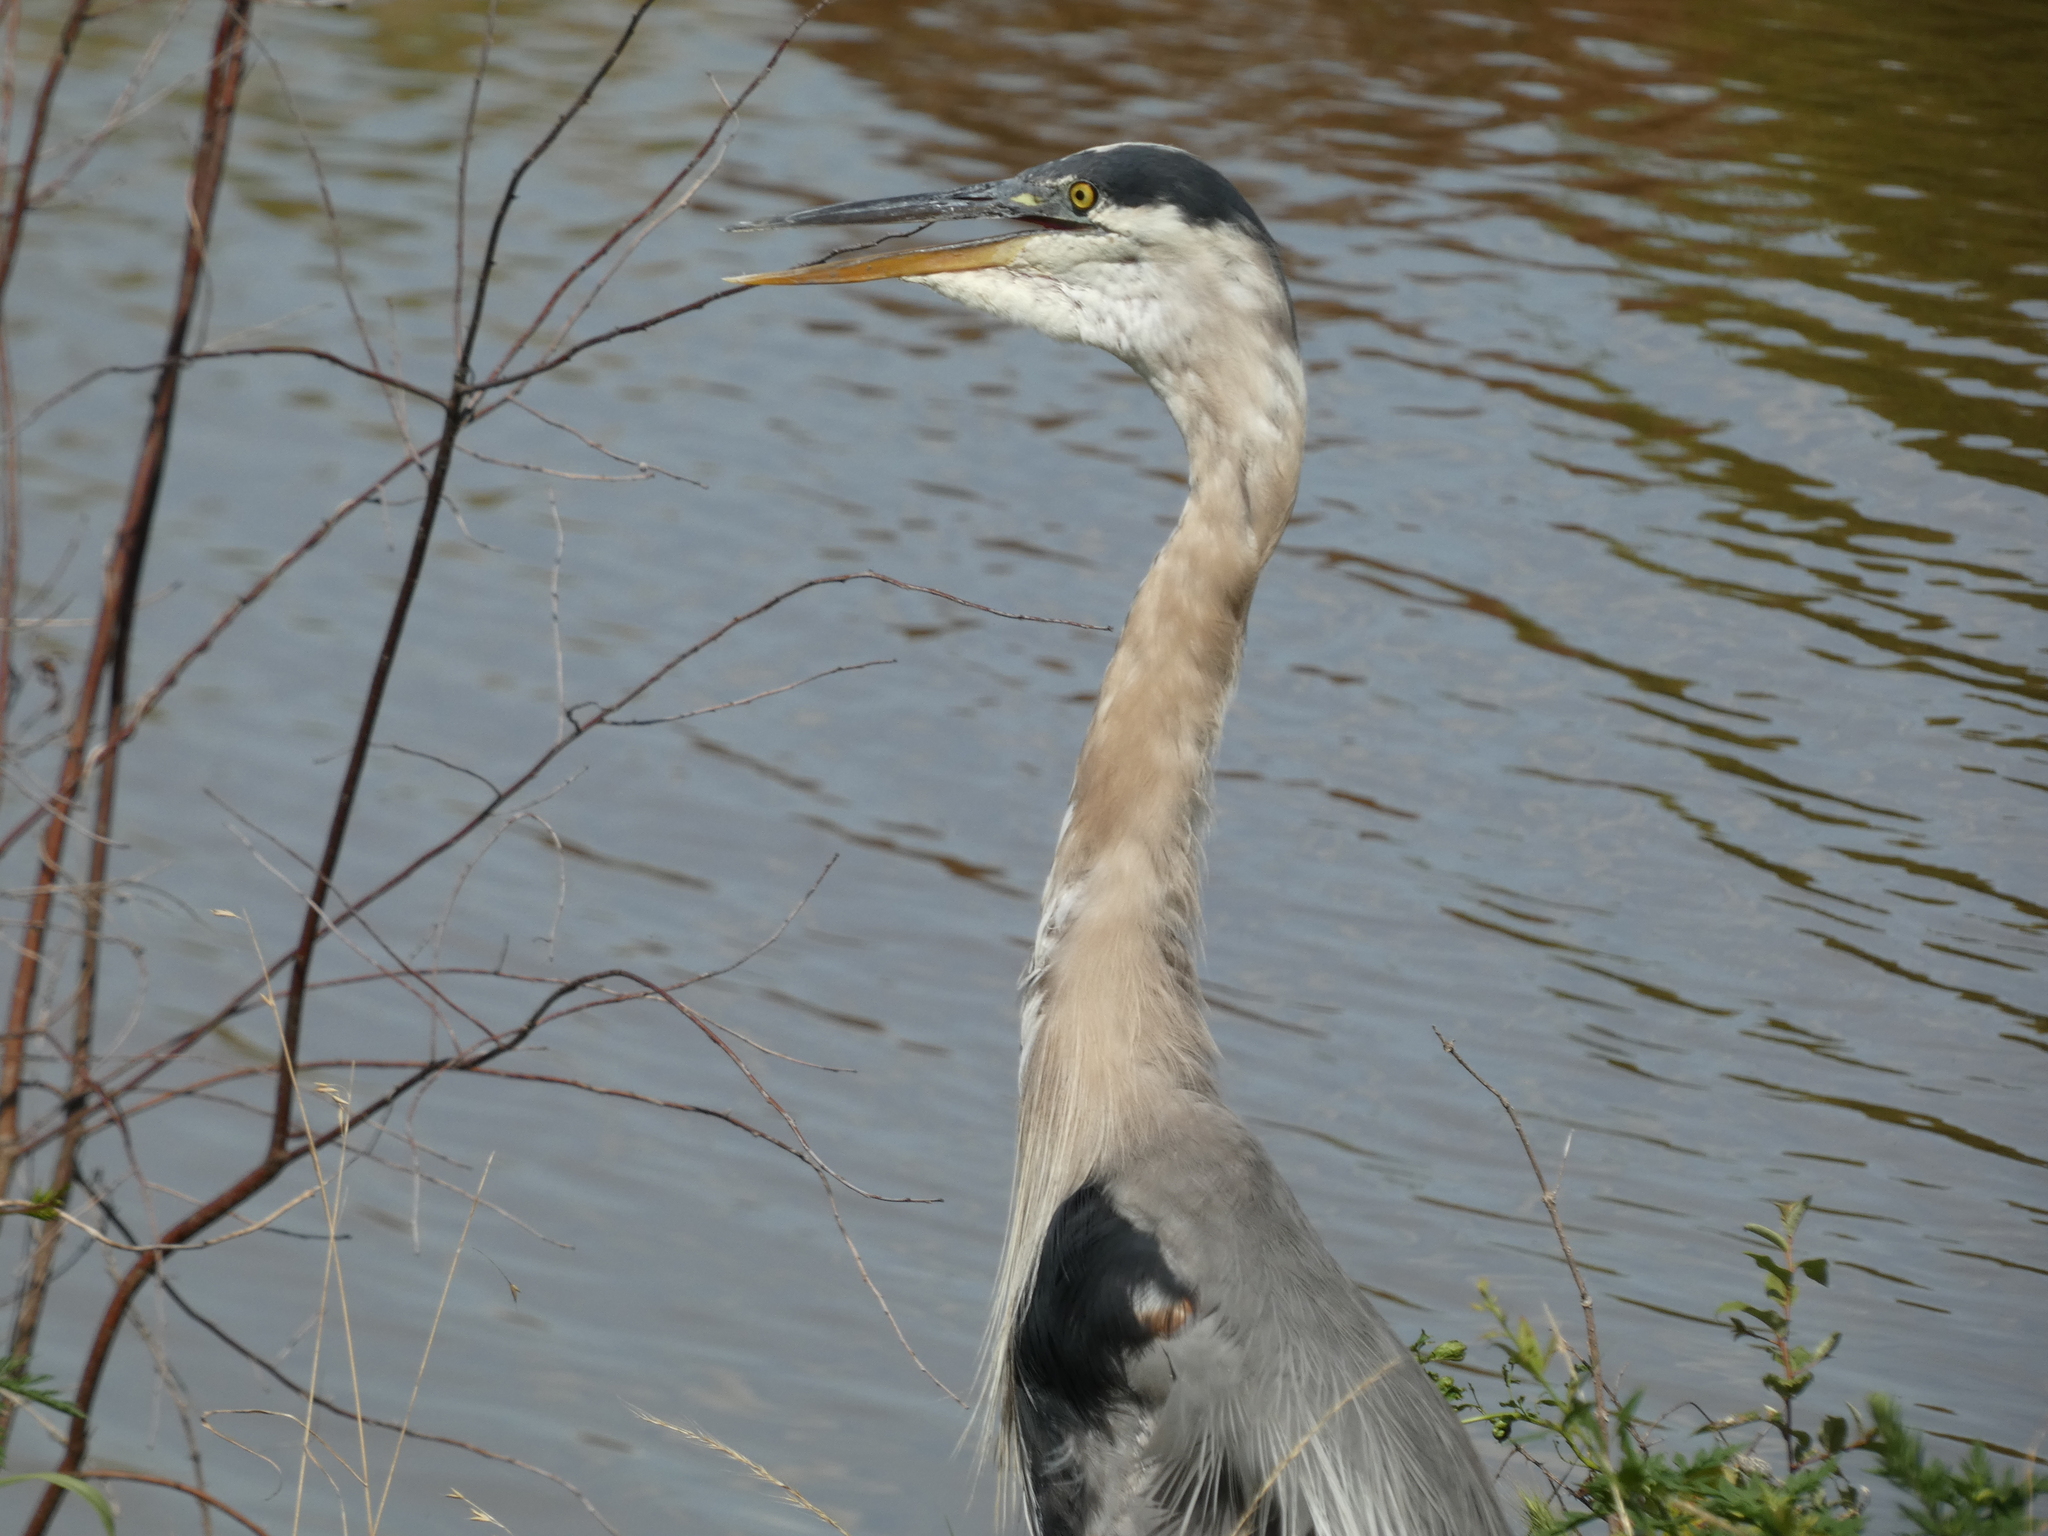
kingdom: Animalia
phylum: Chordata
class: Aves
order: Pelecaniformes
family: Ardeidae
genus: Ardea
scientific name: Ardea herodias
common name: Great blue heron
